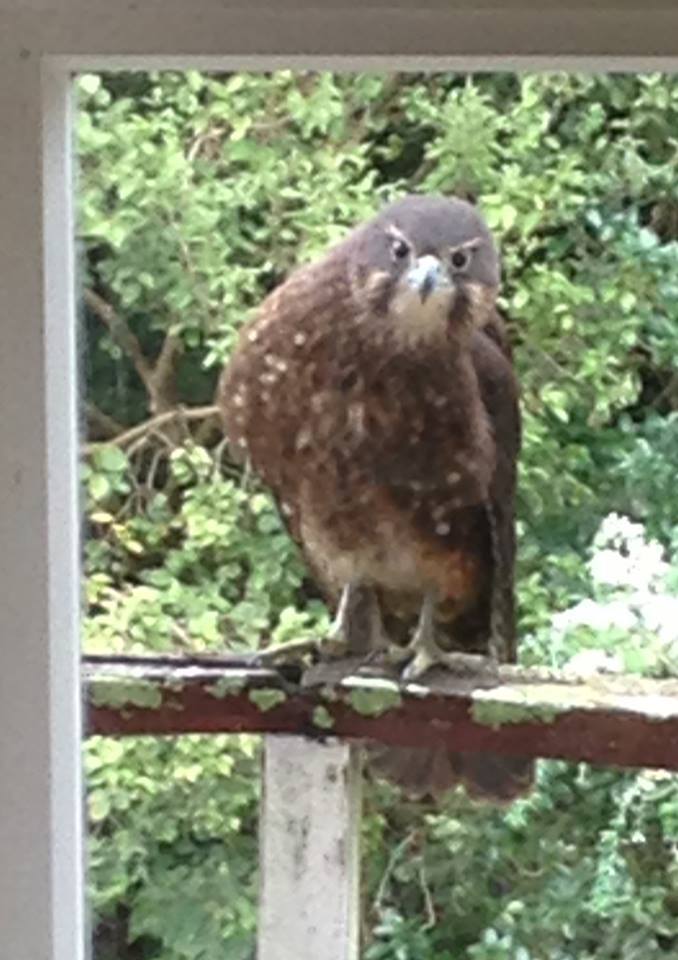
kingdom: Animalia
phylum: Chordata
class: Aves
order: Falconiformes
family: Falconidae
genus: Falco
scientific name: Falco novaeseelandiae
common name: New zealand falcon
